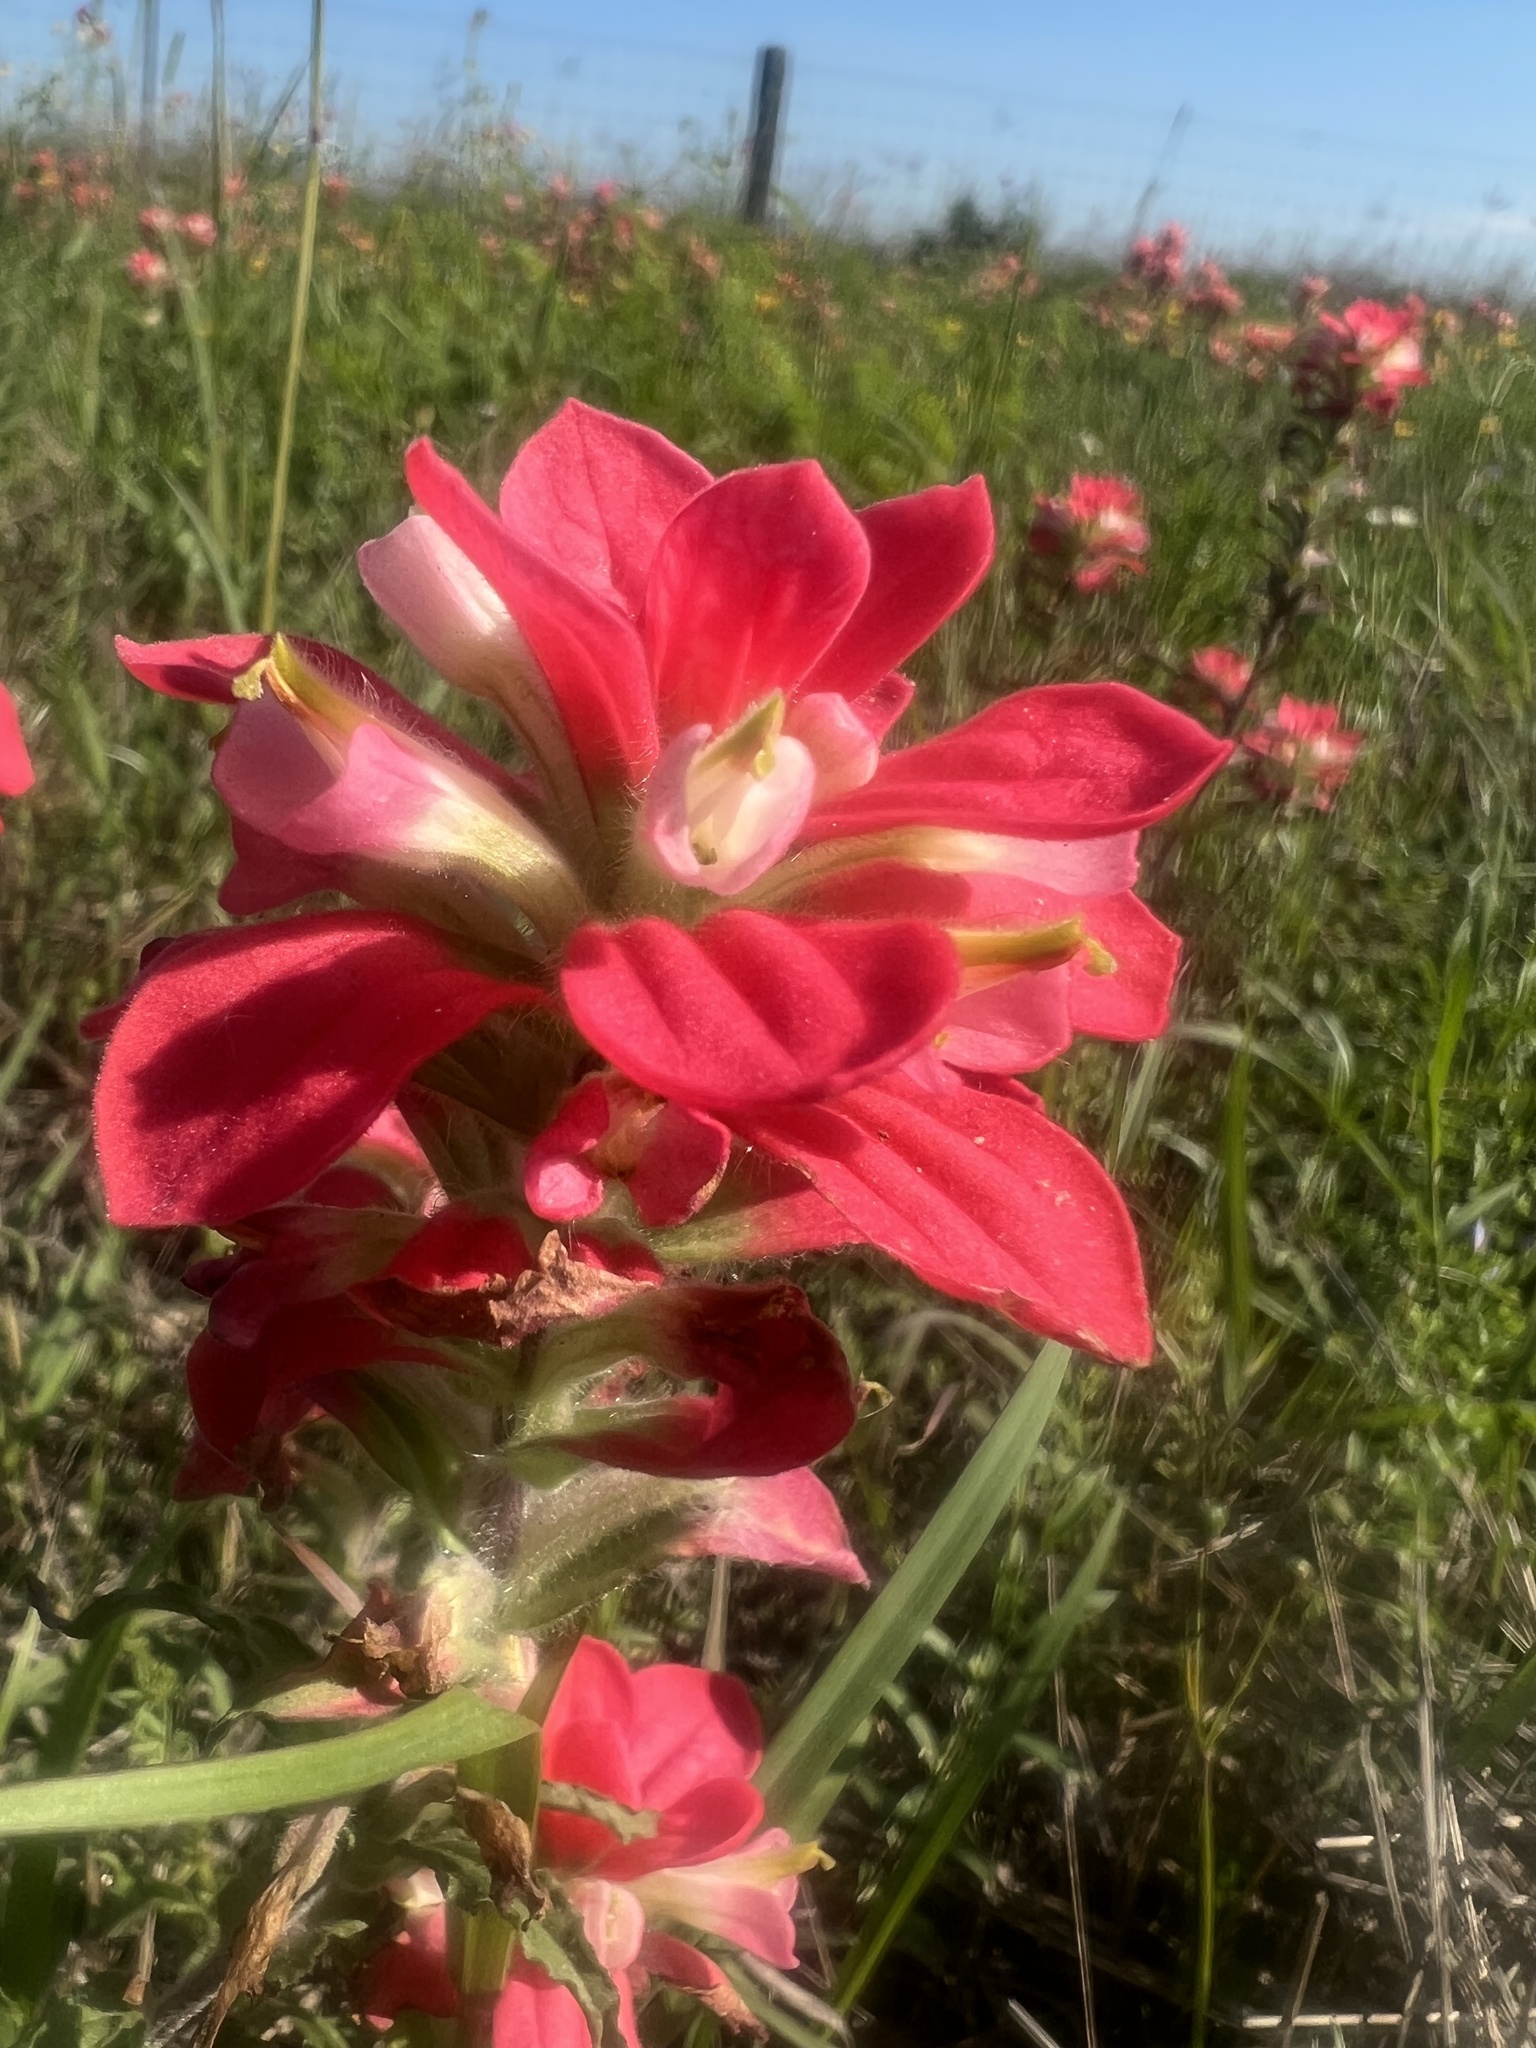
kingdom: Plantae
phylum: Tracheophyta
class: Magnoliopsida
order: Lamiales
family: Orobanchaceae
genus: Castilleja
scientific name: Castilleja indivisa
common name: Texas paintbrush
